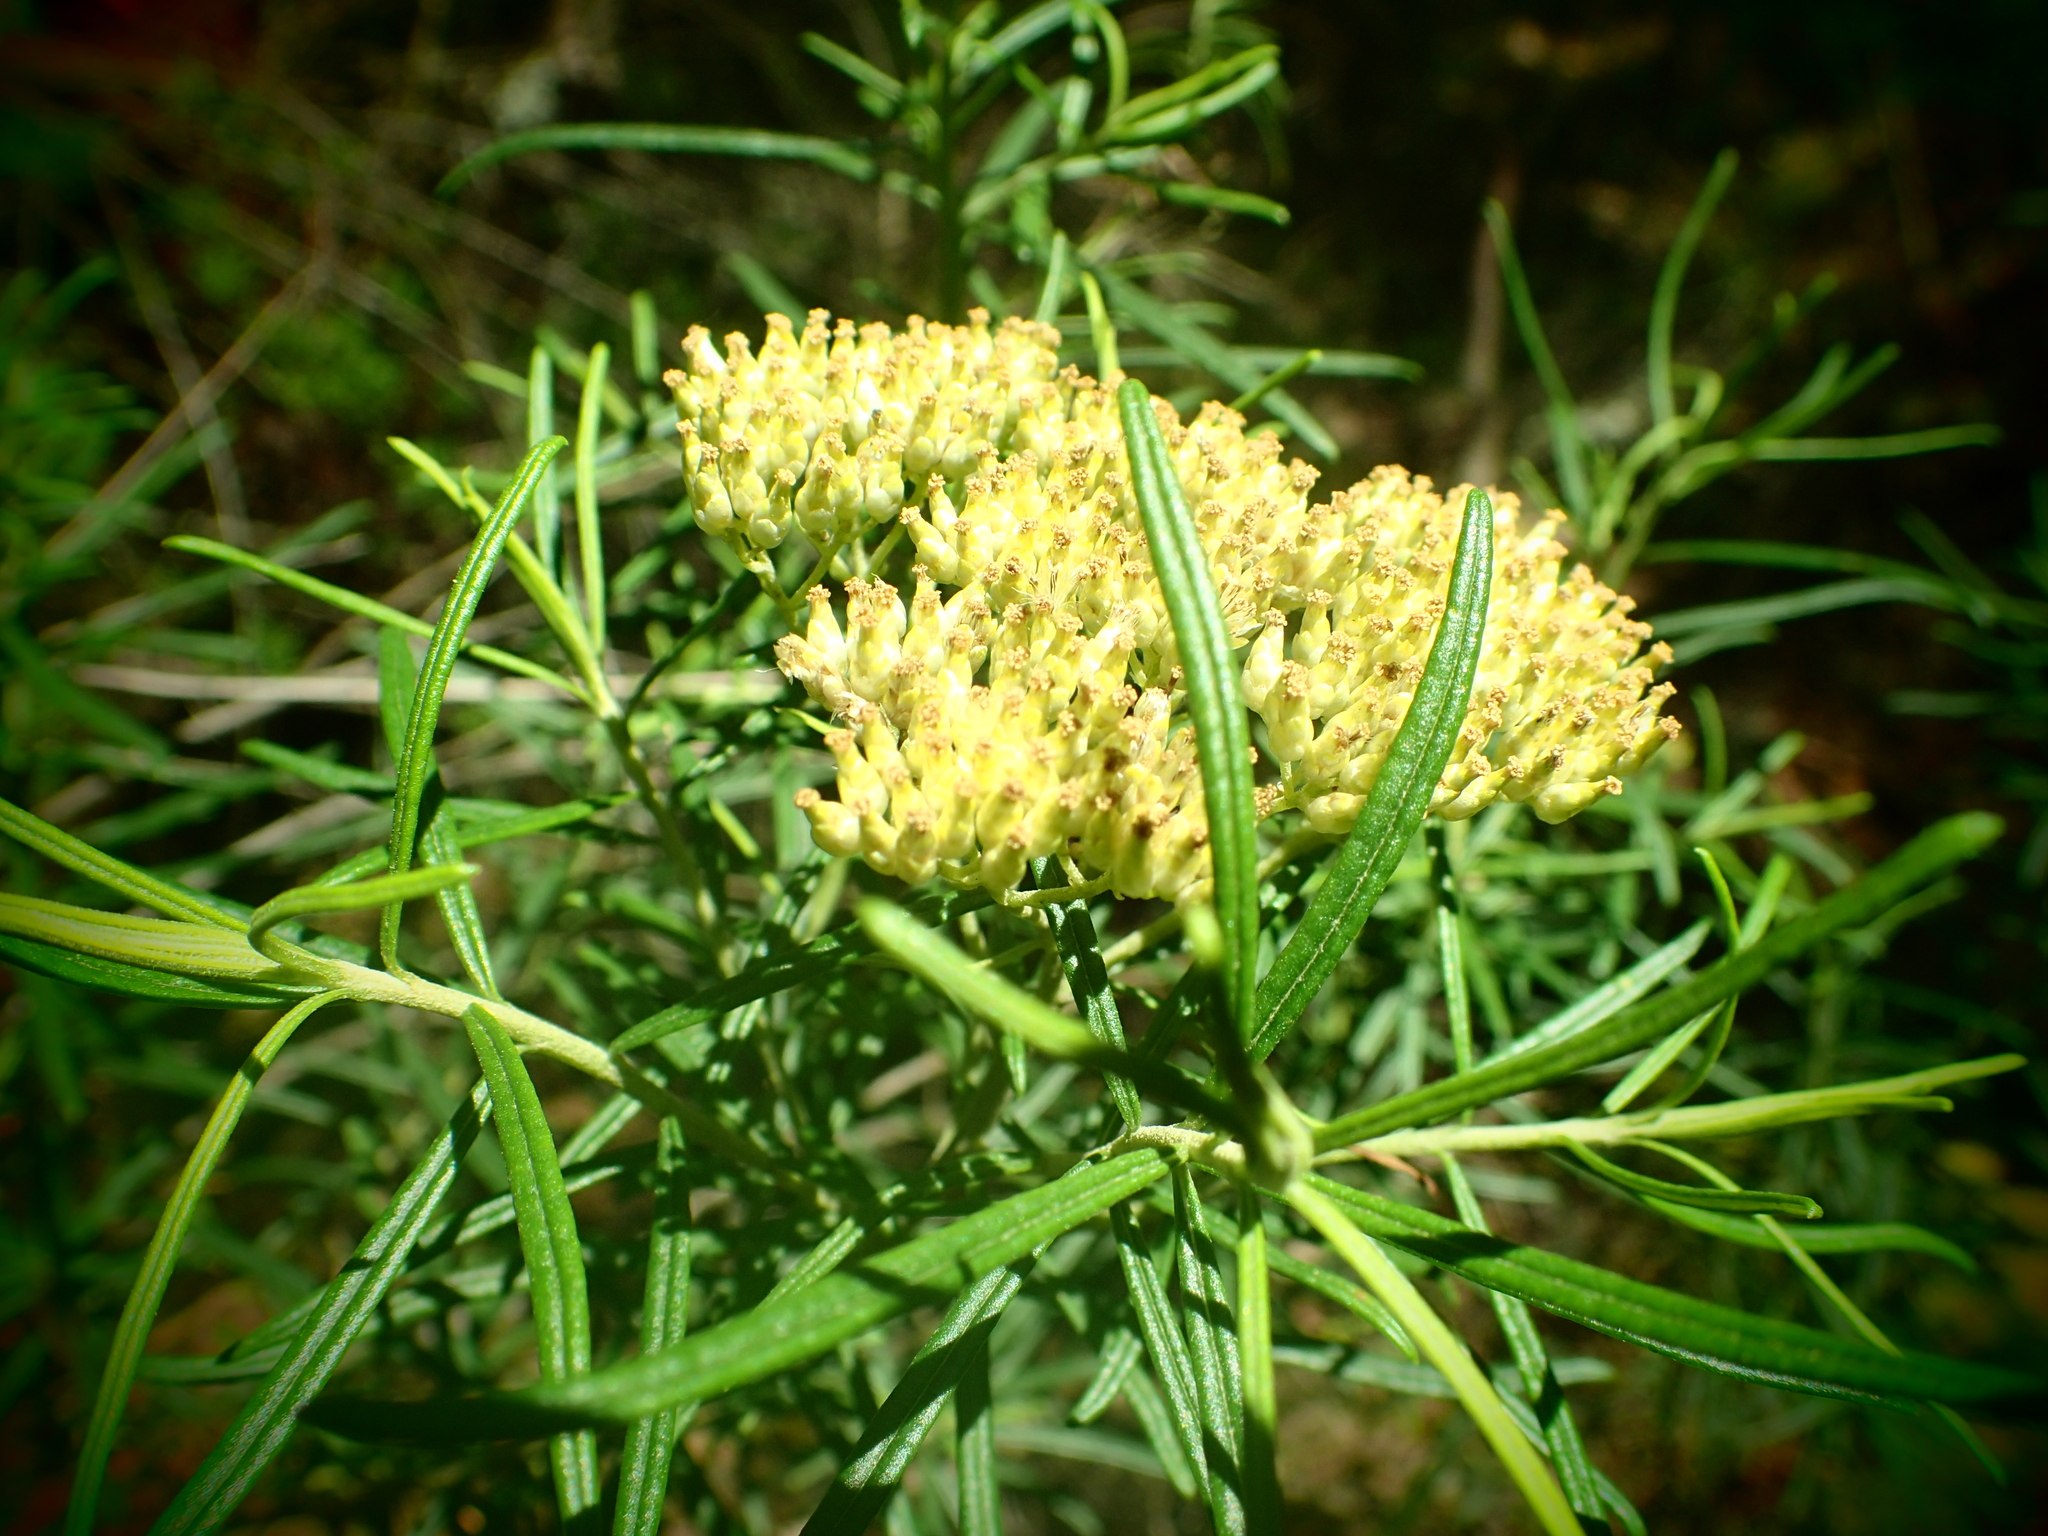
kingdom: Plantae
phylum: Tracheophyta
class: Magnoliopsida
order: Asterales
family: Asteraceae
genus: Cassinia
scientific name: Cassinia aculeata
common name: Australian tauhinu
